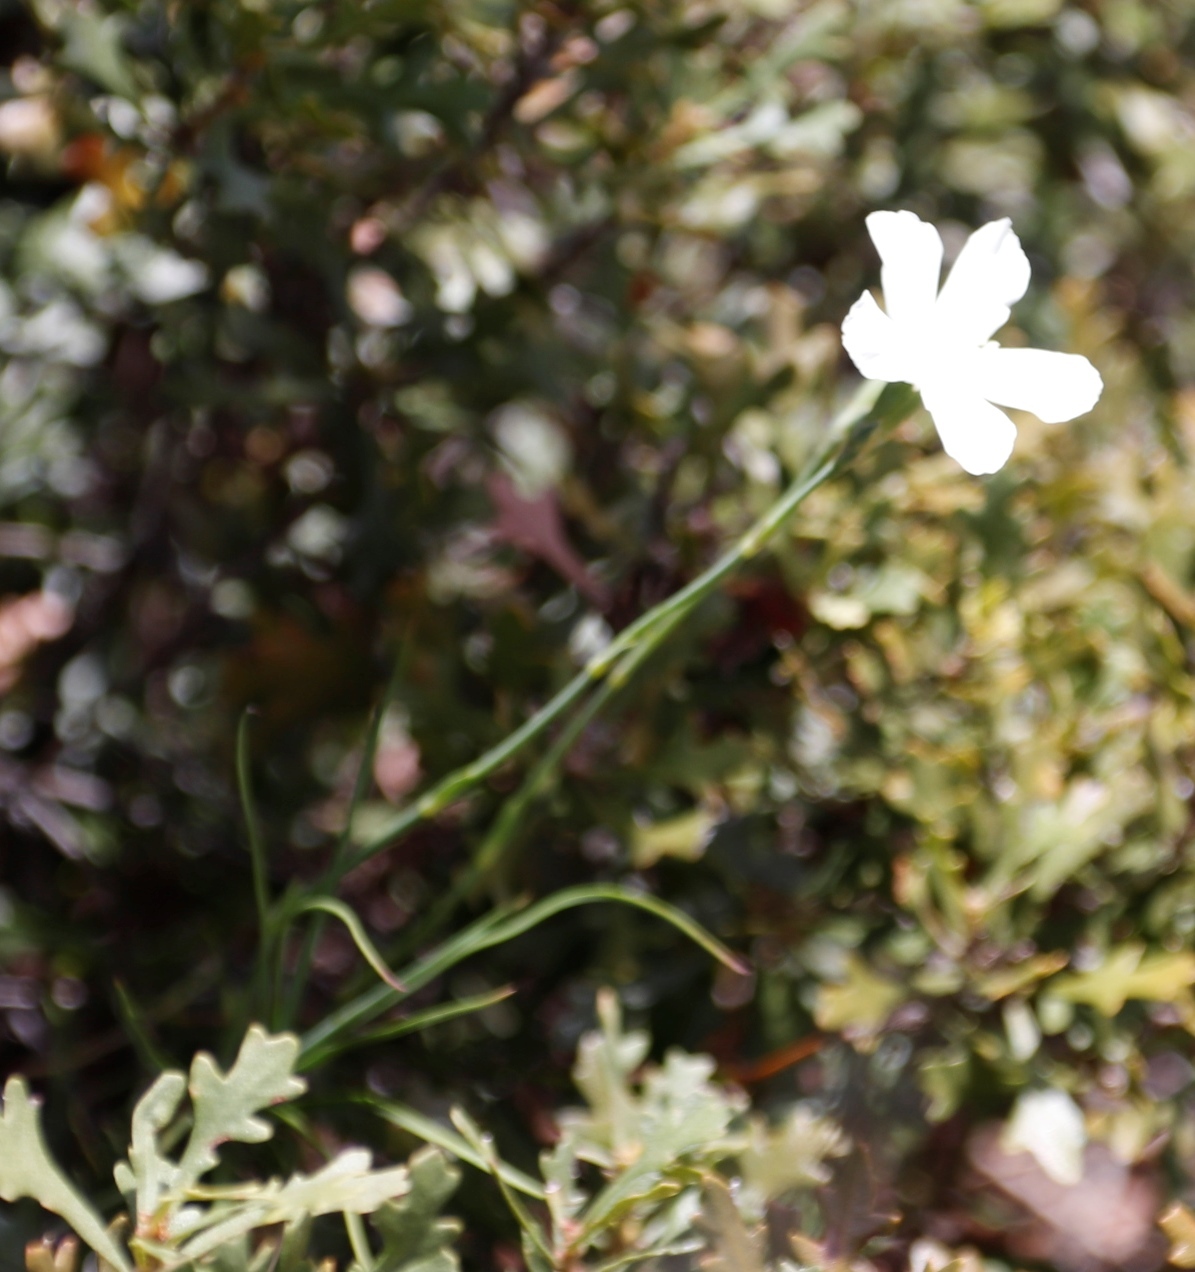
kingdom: Plantae
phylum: Tracheophyta
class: Magnoliopsida
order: Caryophyllales
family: Caryophyllaceae
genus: Dianthus
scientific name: Dianthus albens
